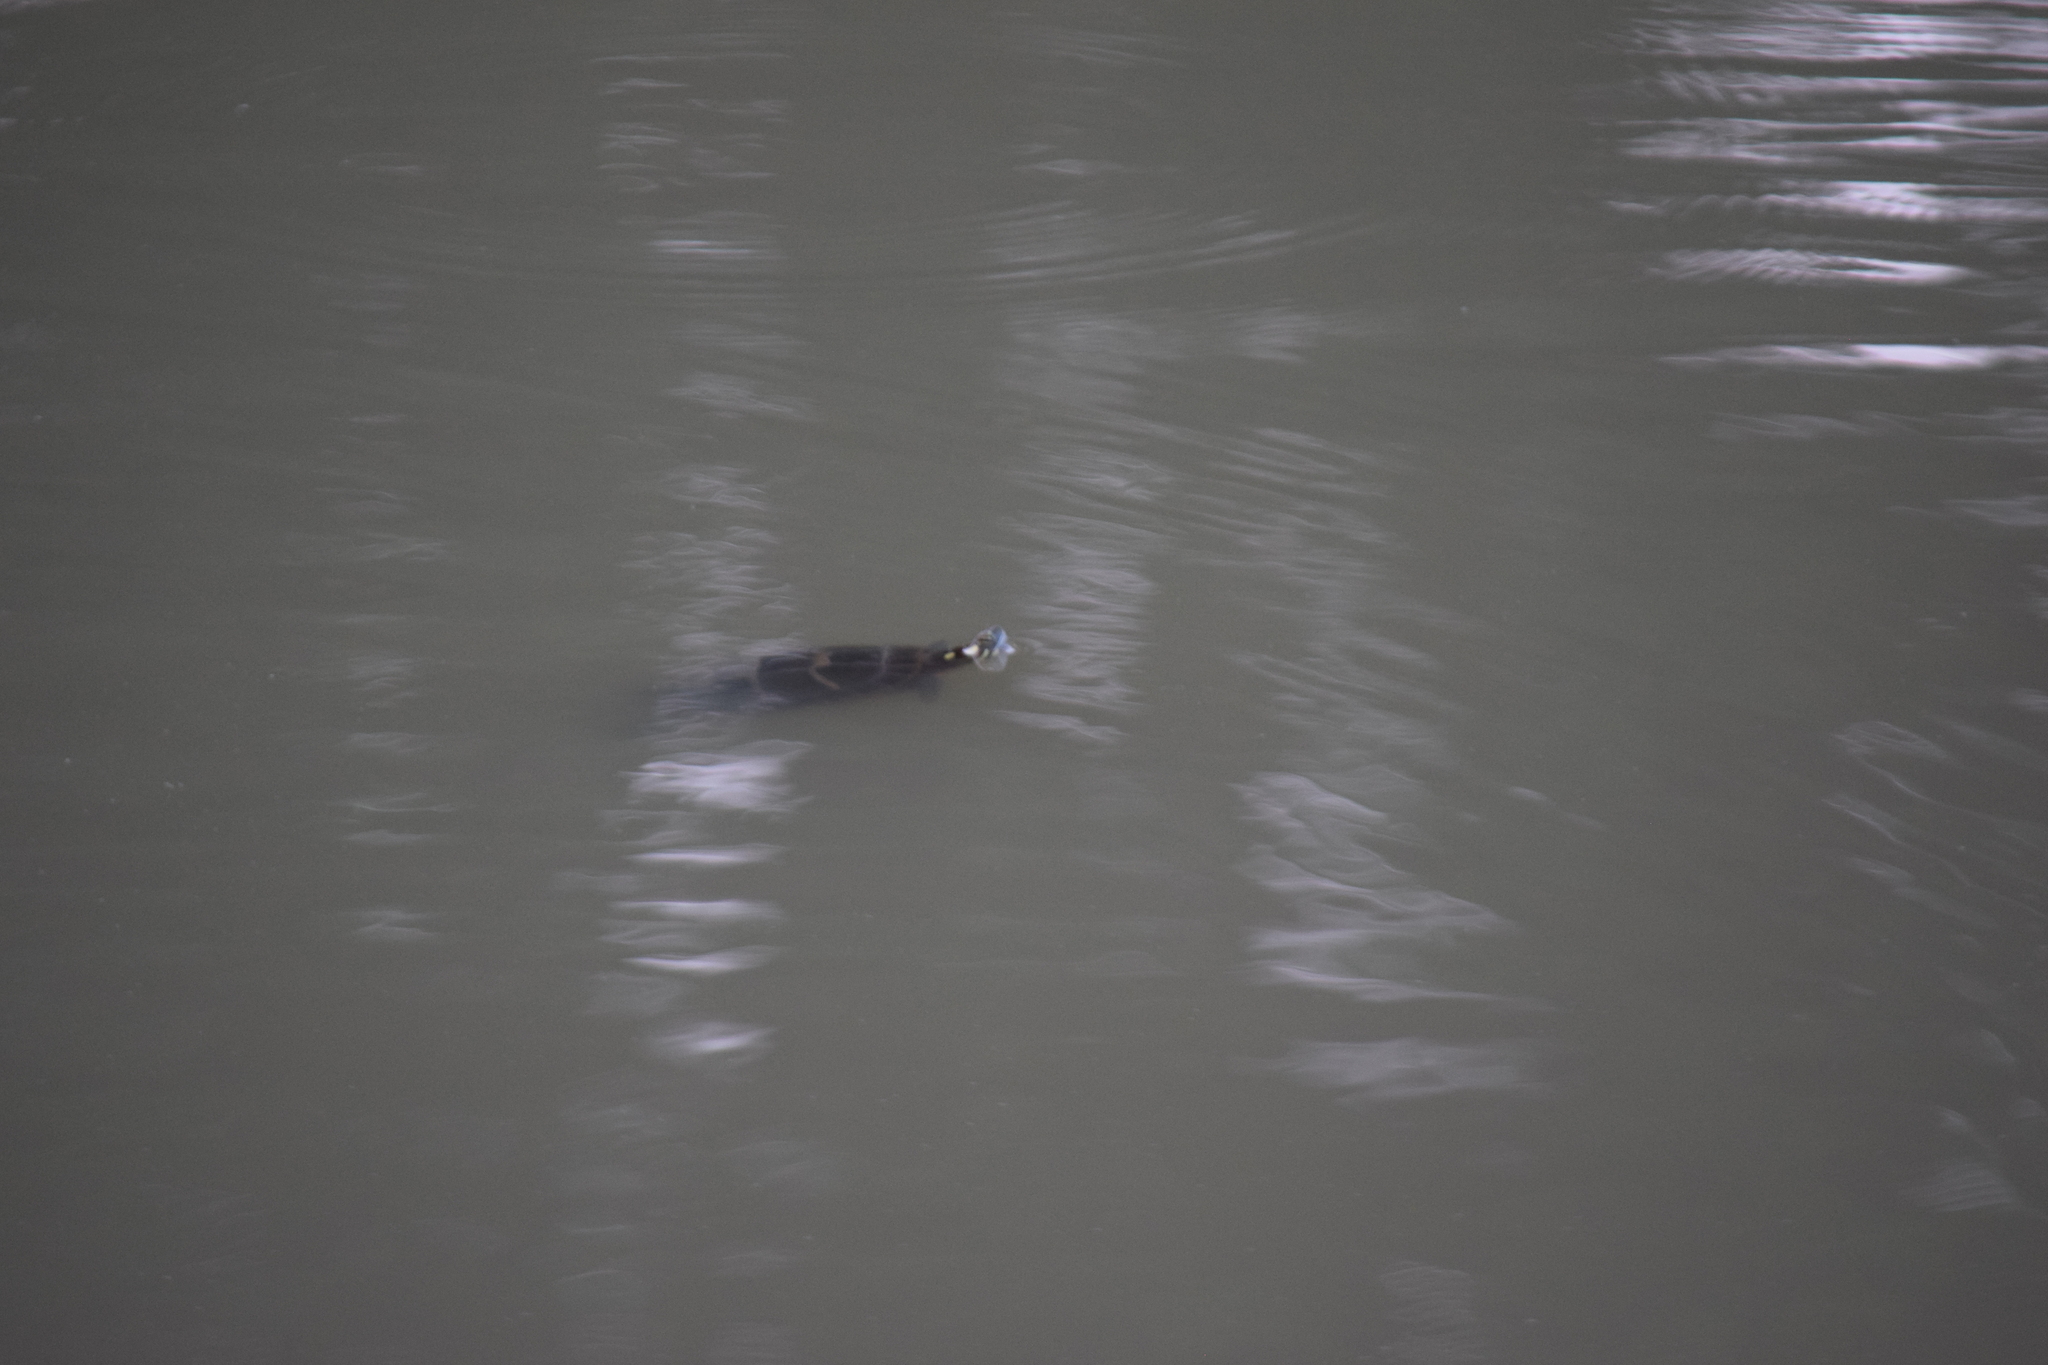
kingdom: Animalia
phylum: Chordata
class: Testudines
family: Emydidae
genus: Chrysemys
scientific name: Chrysemys picta
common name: Painted turtle
